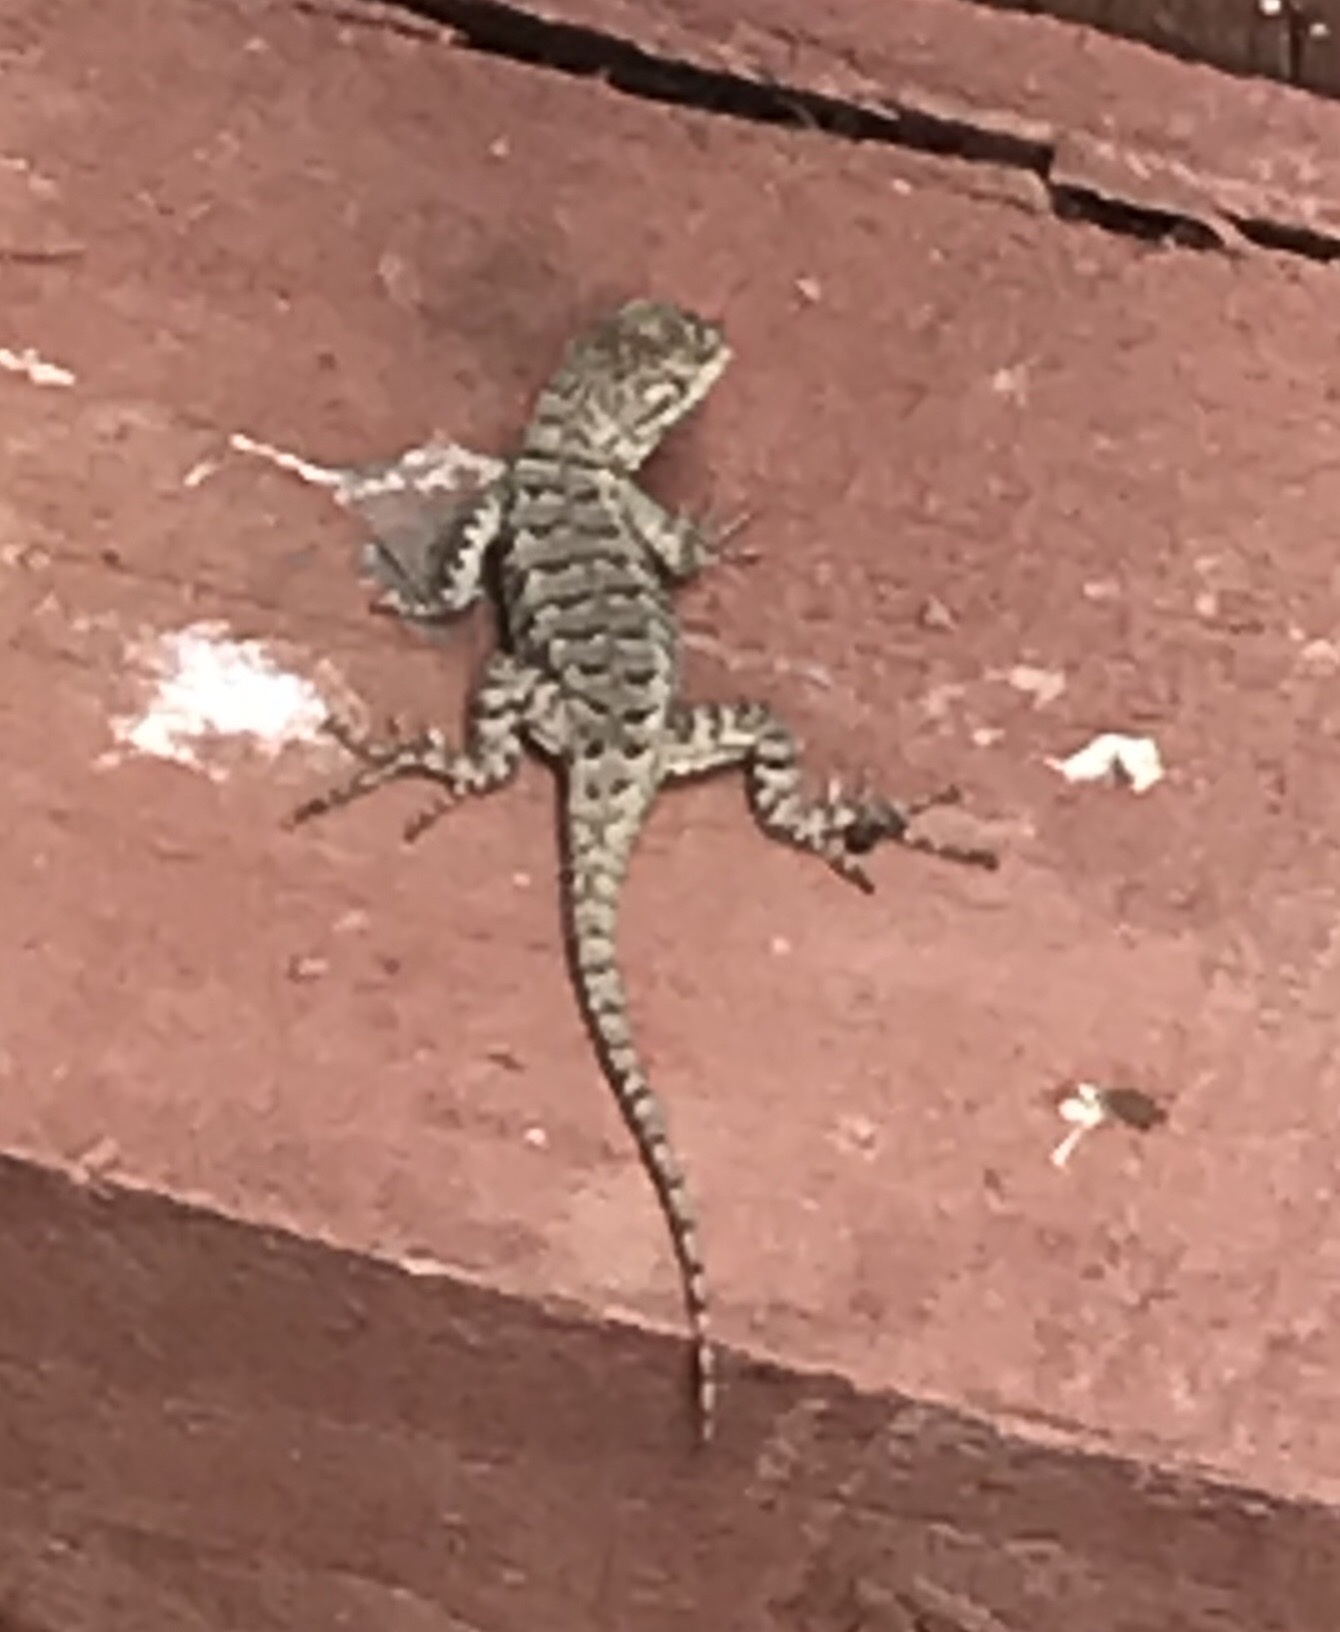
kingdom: Animalia
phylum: Chordata
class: Squamata
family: Phrynosomatidae
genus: Sceloporus
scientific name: Sceloporus occidentalis
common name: Western fence lizard
